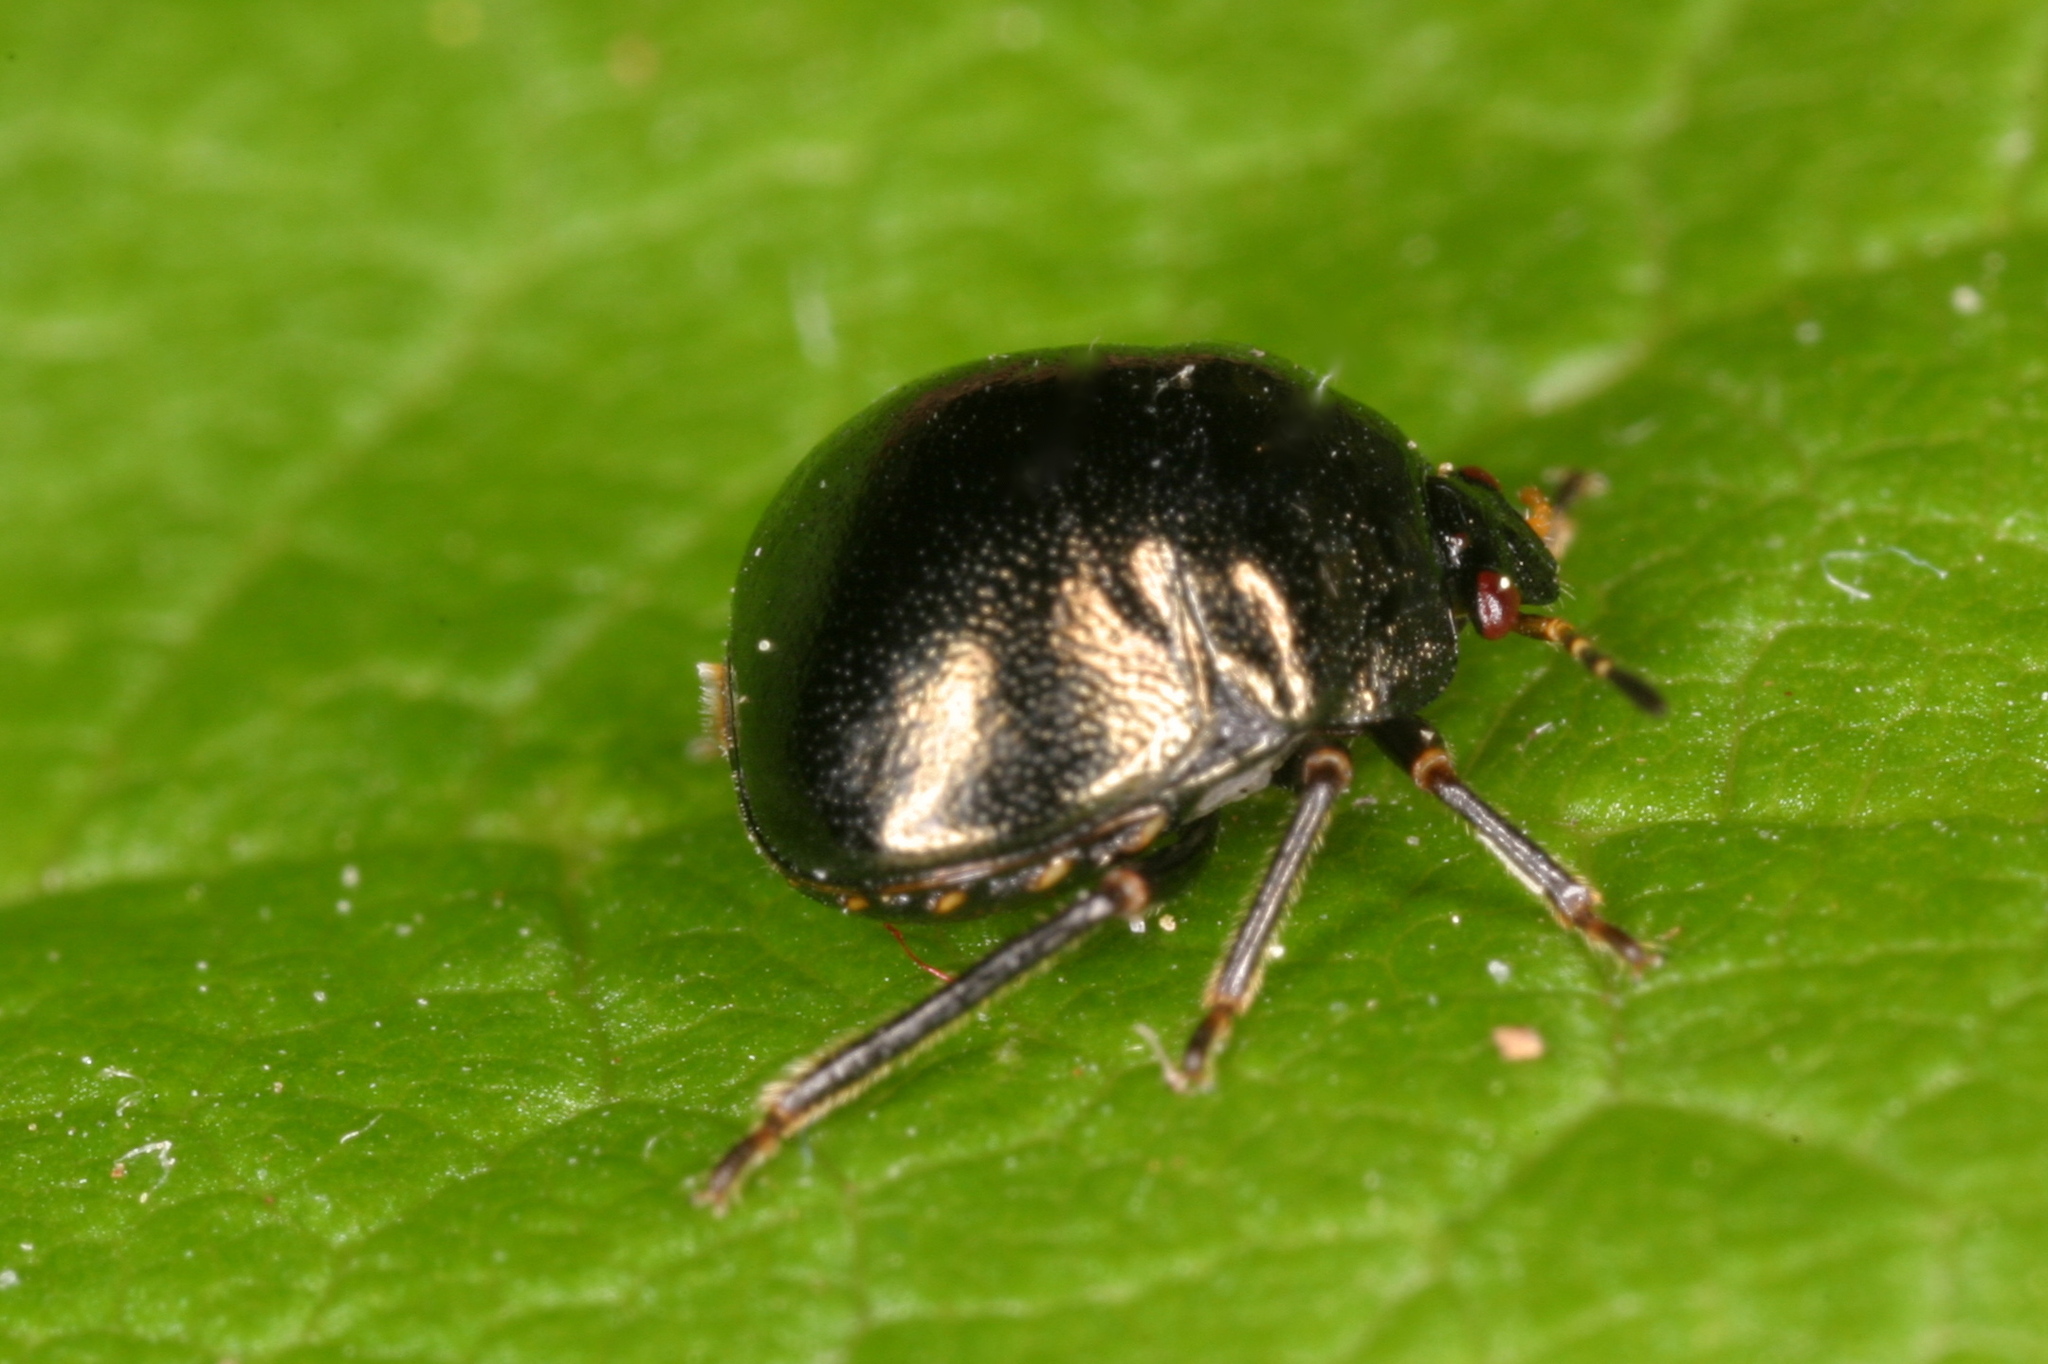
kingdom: Animalia
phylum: Arthropoda
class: Insecta
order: Hemiptera
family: Plataspidae
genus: Coptosoma
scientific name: Coptosoma scutellatum
